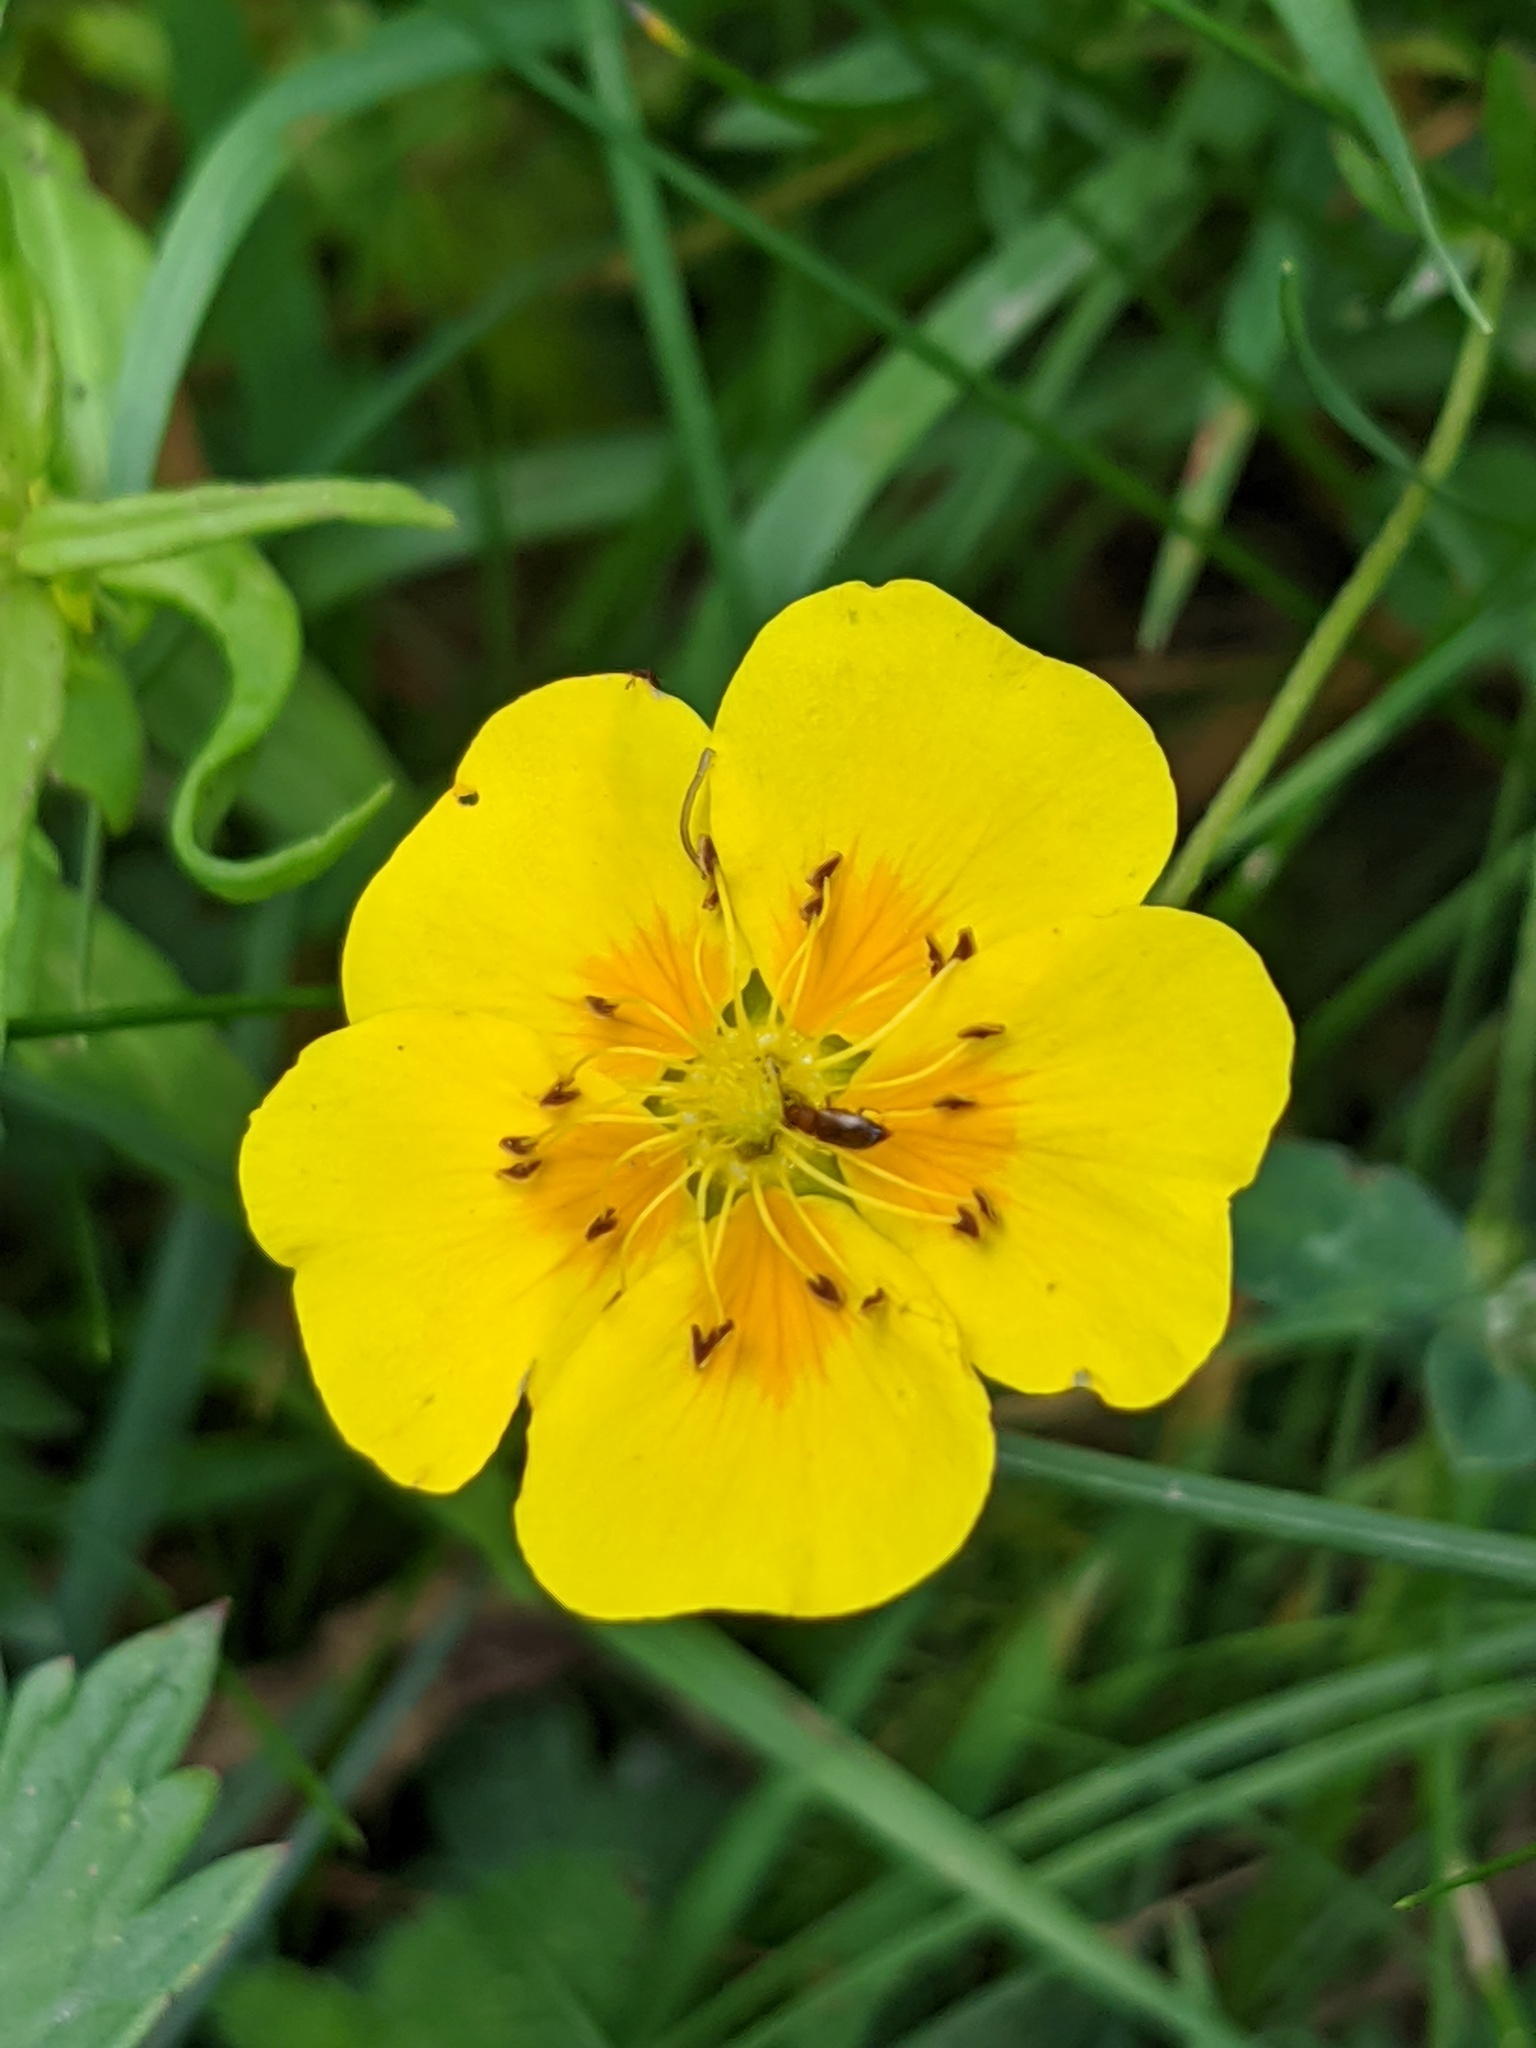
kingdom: Plantae
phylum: Tracheophyta
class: Magnoliopsida
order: Rosales
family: Rosaceae
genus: Potentilla
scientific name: Potentilla aurea
